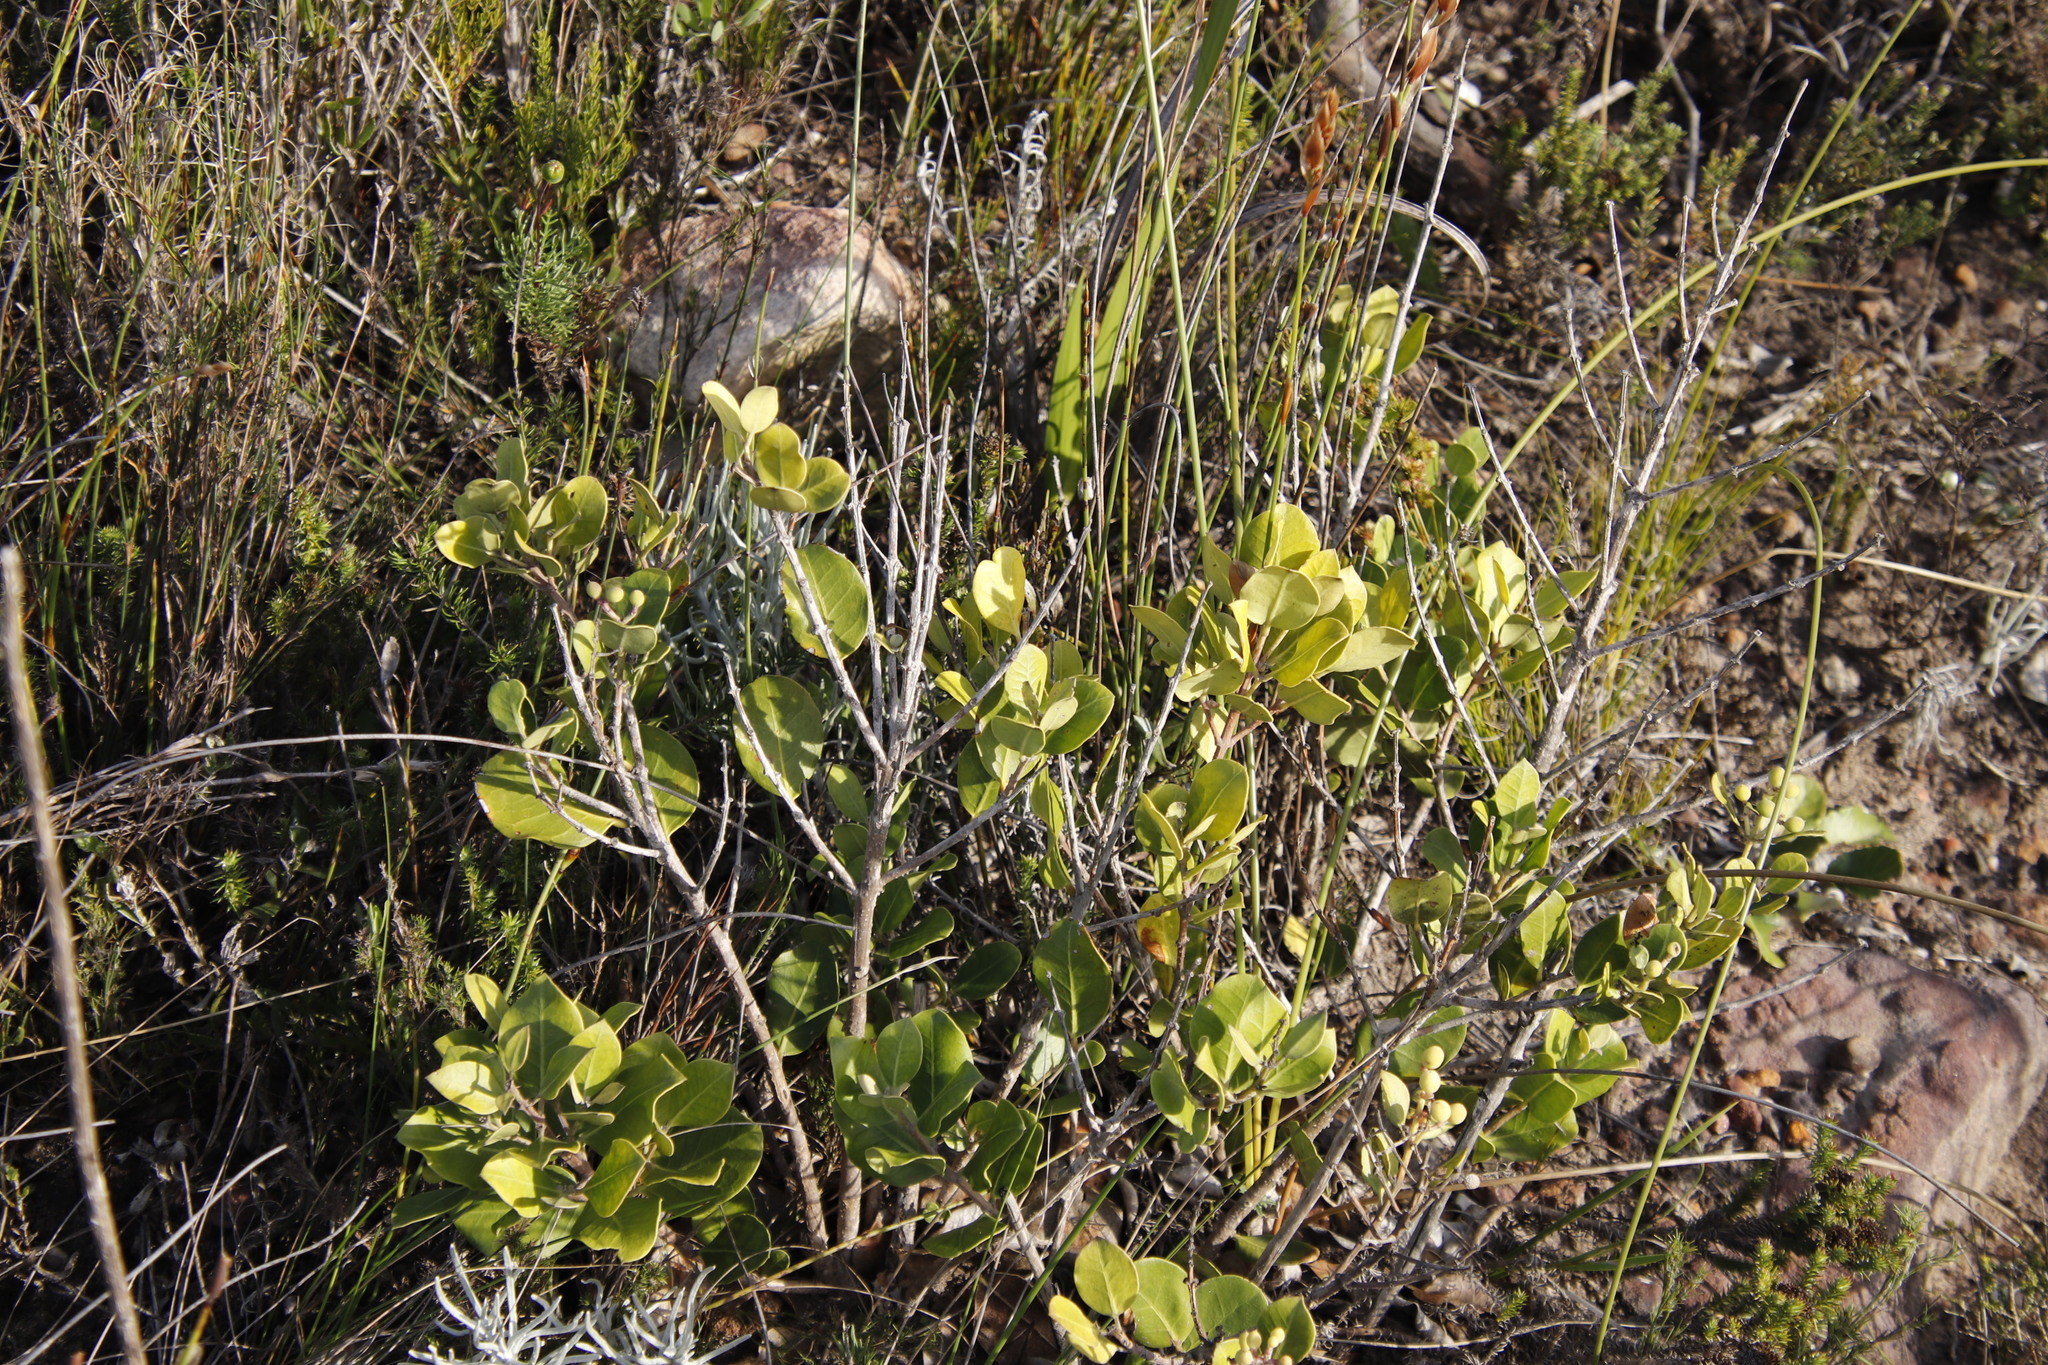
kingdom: Plantae
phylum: Tracheophyta
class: Magnoliopsida
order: Lamiales
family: Oleaceae
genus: Olea
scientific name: Olea capensis
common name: Black ironwood
